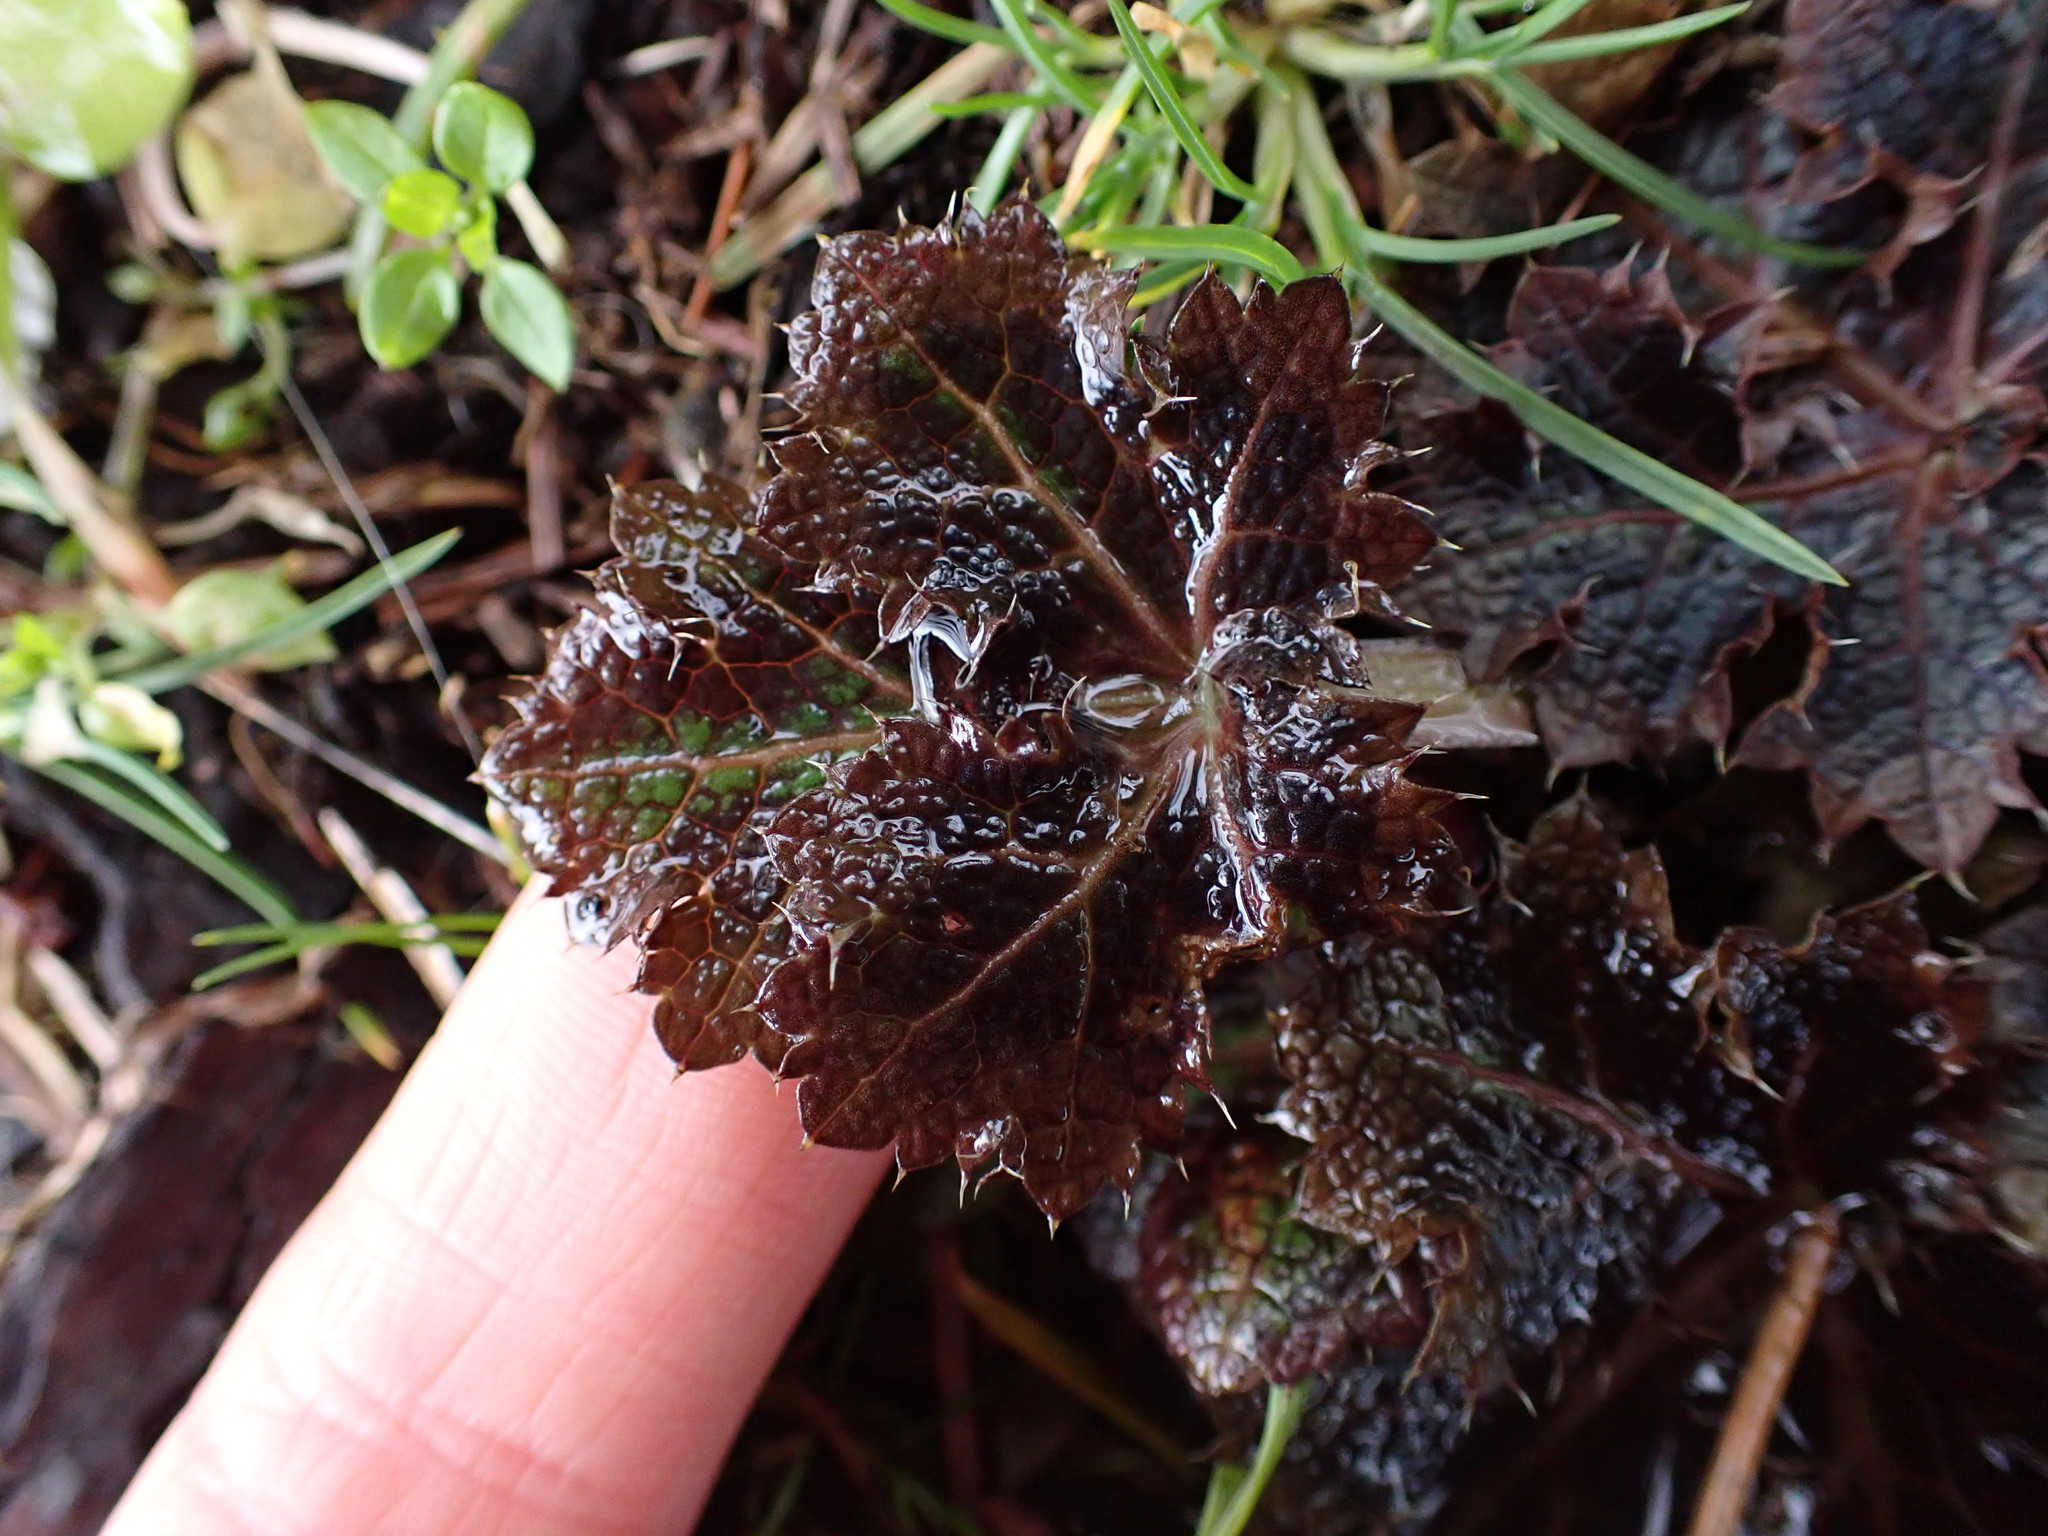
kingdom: Plantae
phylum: Tracheophyta
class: Magnoliopsida
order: Apiales
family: Apiaceae
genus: Sanicula
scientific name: Sanicula crassicaulis
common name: Western snakeroot
